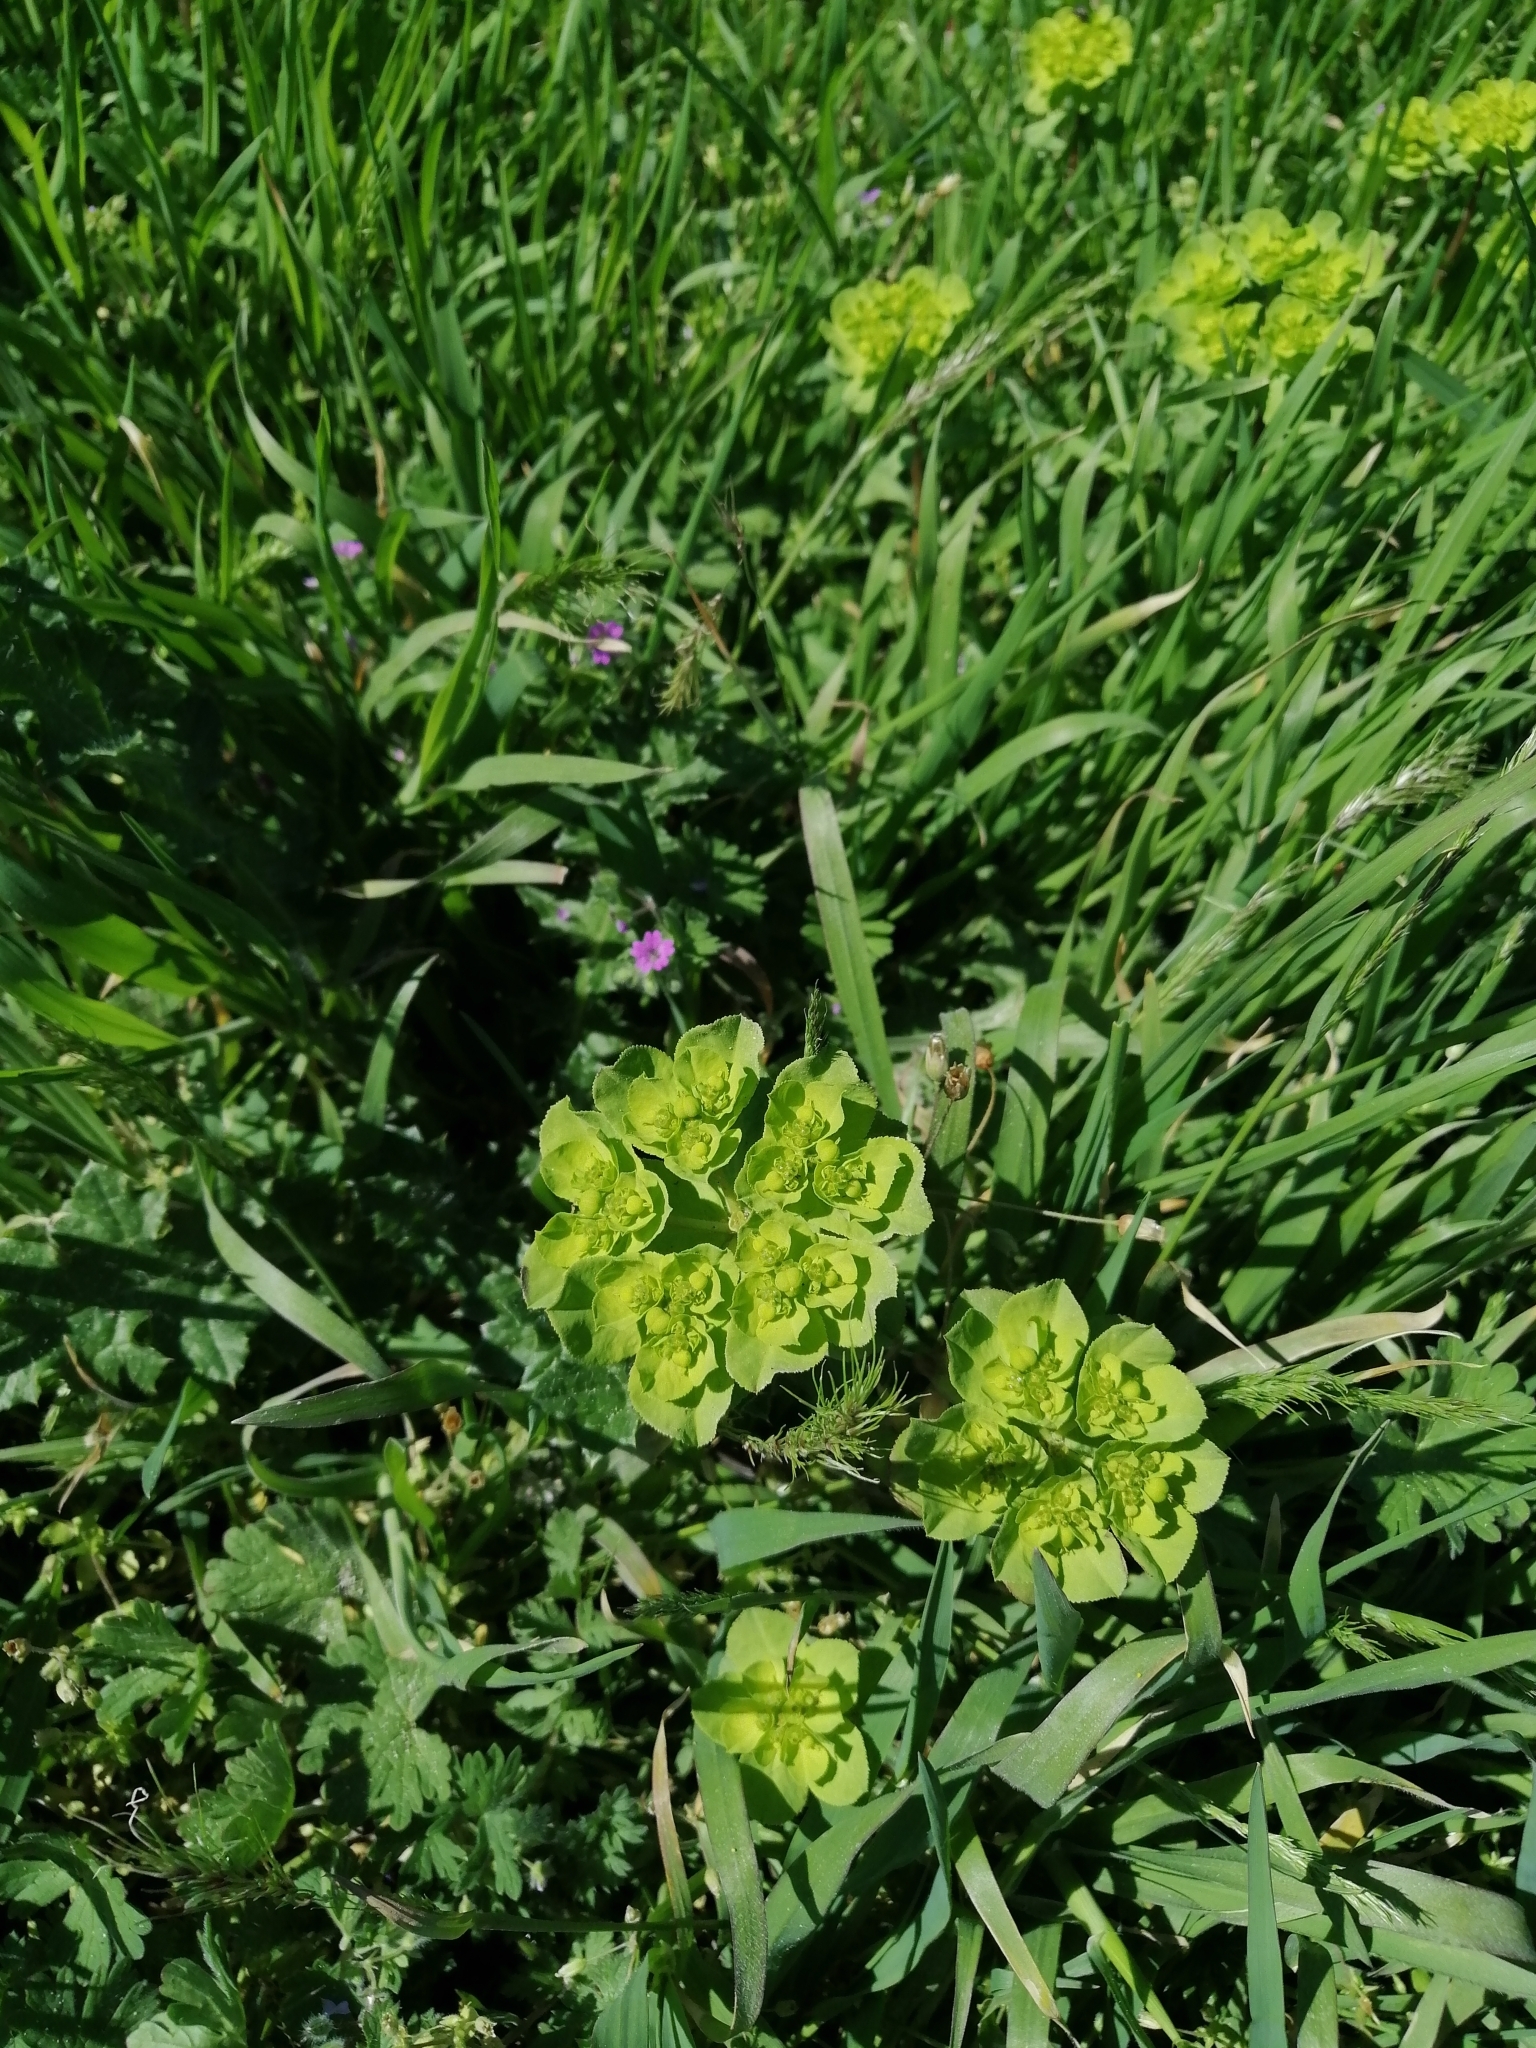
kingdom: Plantae
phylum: Tracheophyta
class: Magnoliopsida
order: Malpighiales
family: Euphorbiaceae
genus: Euphorbia
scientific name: Euphorbia helioscopia
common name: Sun spurge
